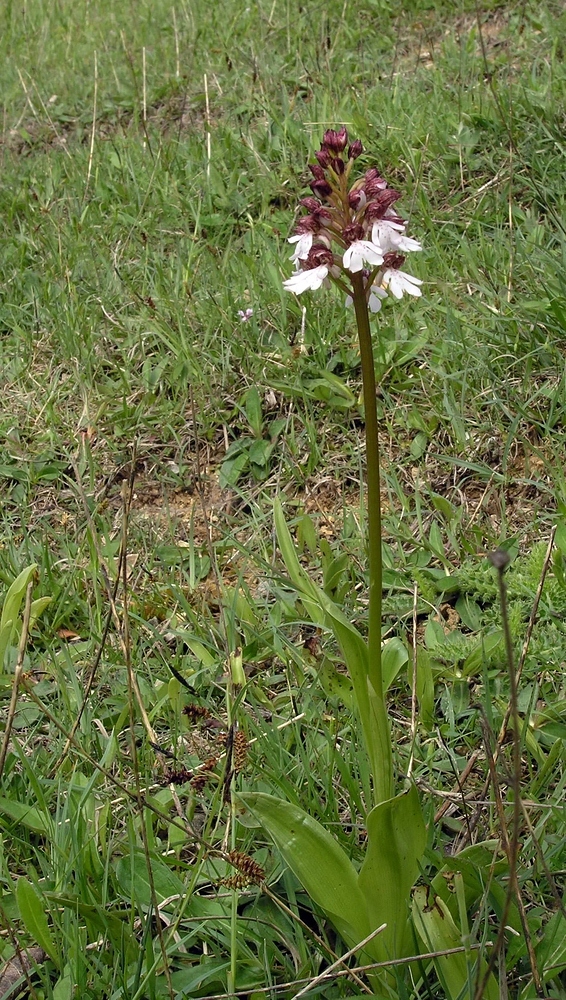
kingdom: Plantae
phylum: Tracheophyta
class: Liliopsida
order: Asparagales
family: Orchidaceae
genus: Orchis
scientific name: Orchis purpurea
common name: Lady orchid
